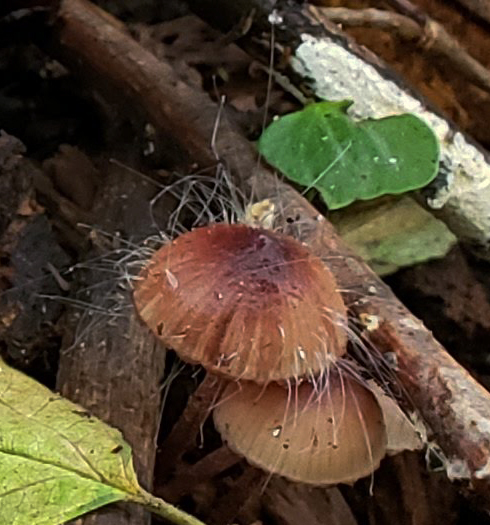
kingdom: Fungi
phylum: Mucoromycota
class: Mucoromycetes
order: Mucorales
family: Phycomycetaceae
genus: Spinellus
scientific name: Spinellus fusiger
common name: Bonnet mould
